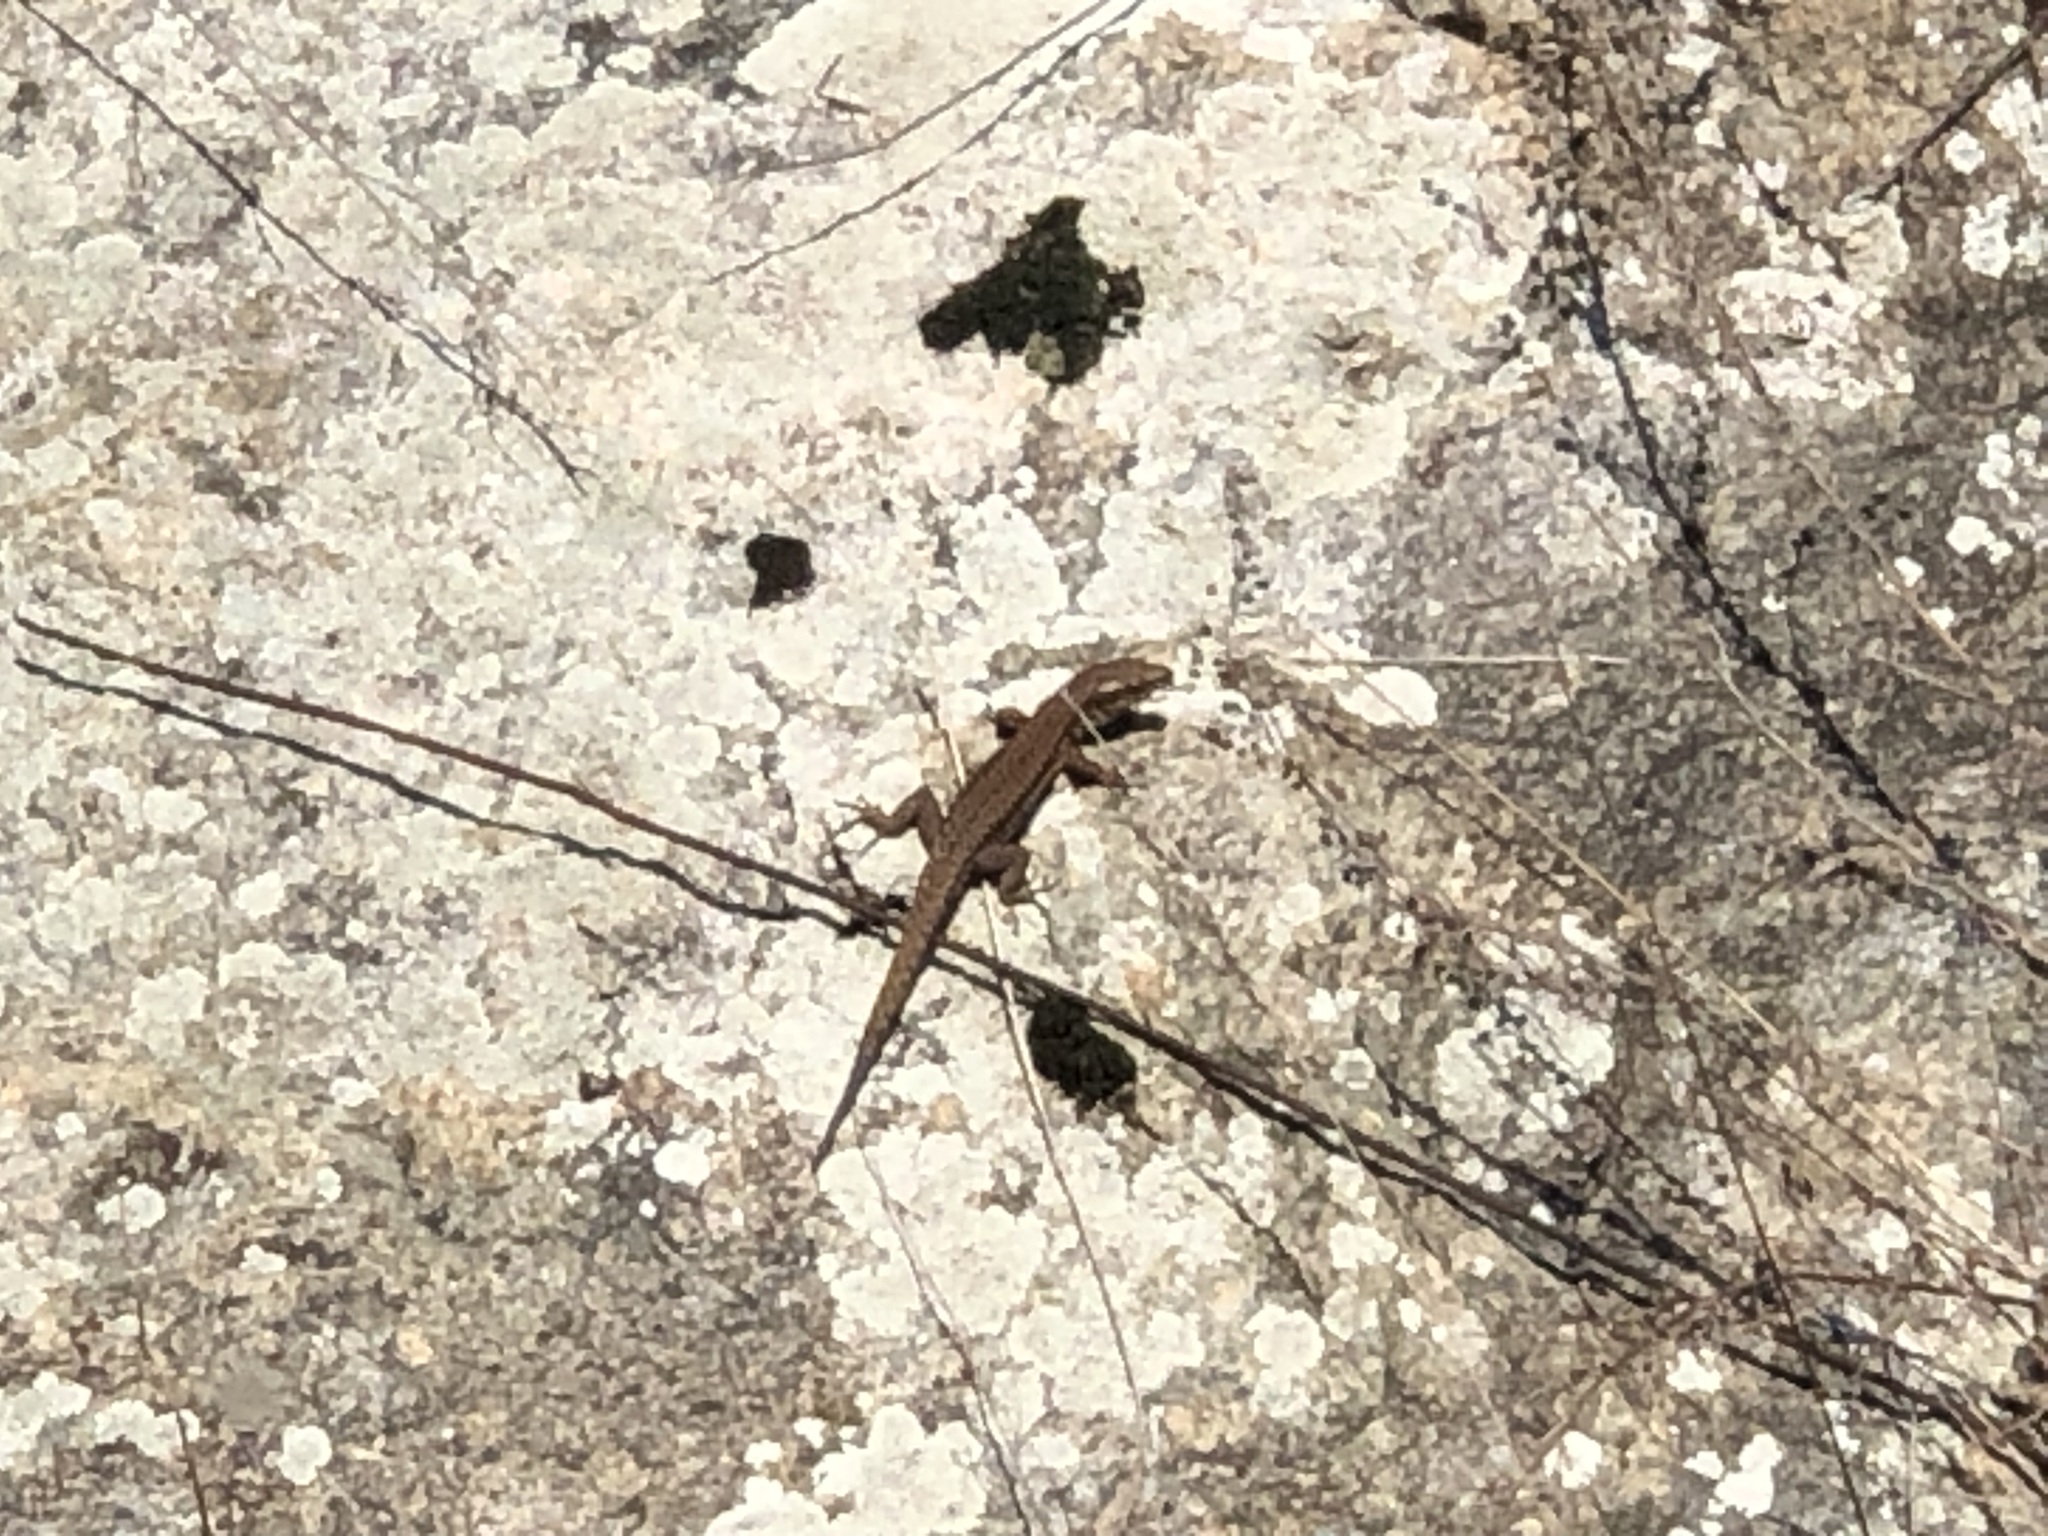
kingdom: Animalia
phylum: Chordata
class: Squamata
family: Lacertidae
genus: Podarcis
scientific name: Podarcis muralis
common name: Common wall lizard
